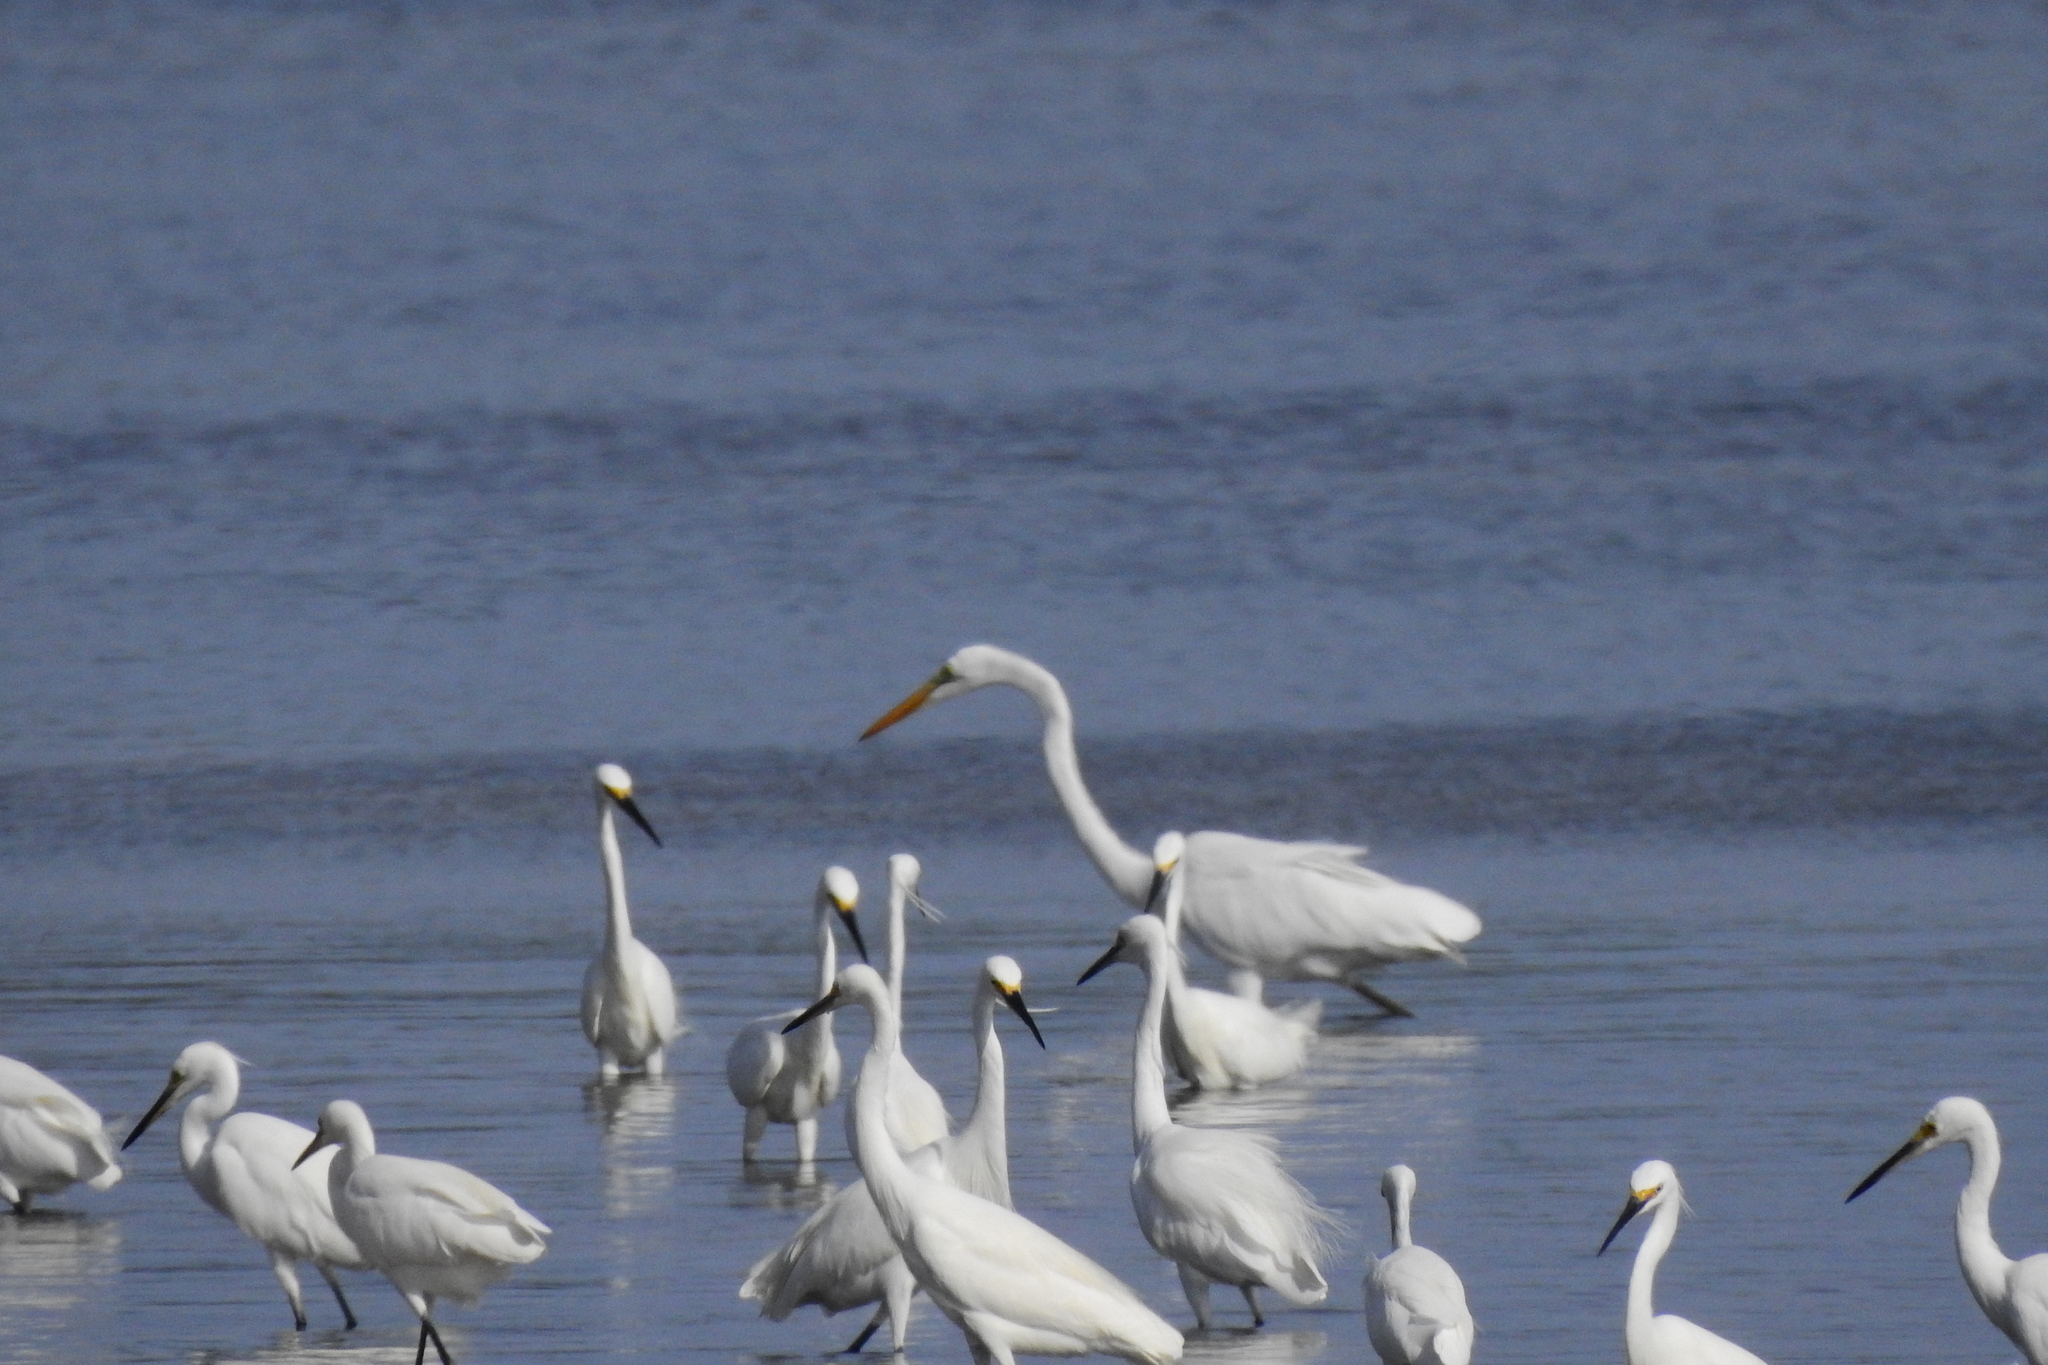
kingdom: Animalia
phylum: Chordata
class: Aves
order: Pelecaniformes
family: Ardeidae
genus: Ardea
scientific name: Ardea alba
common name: Great egret
